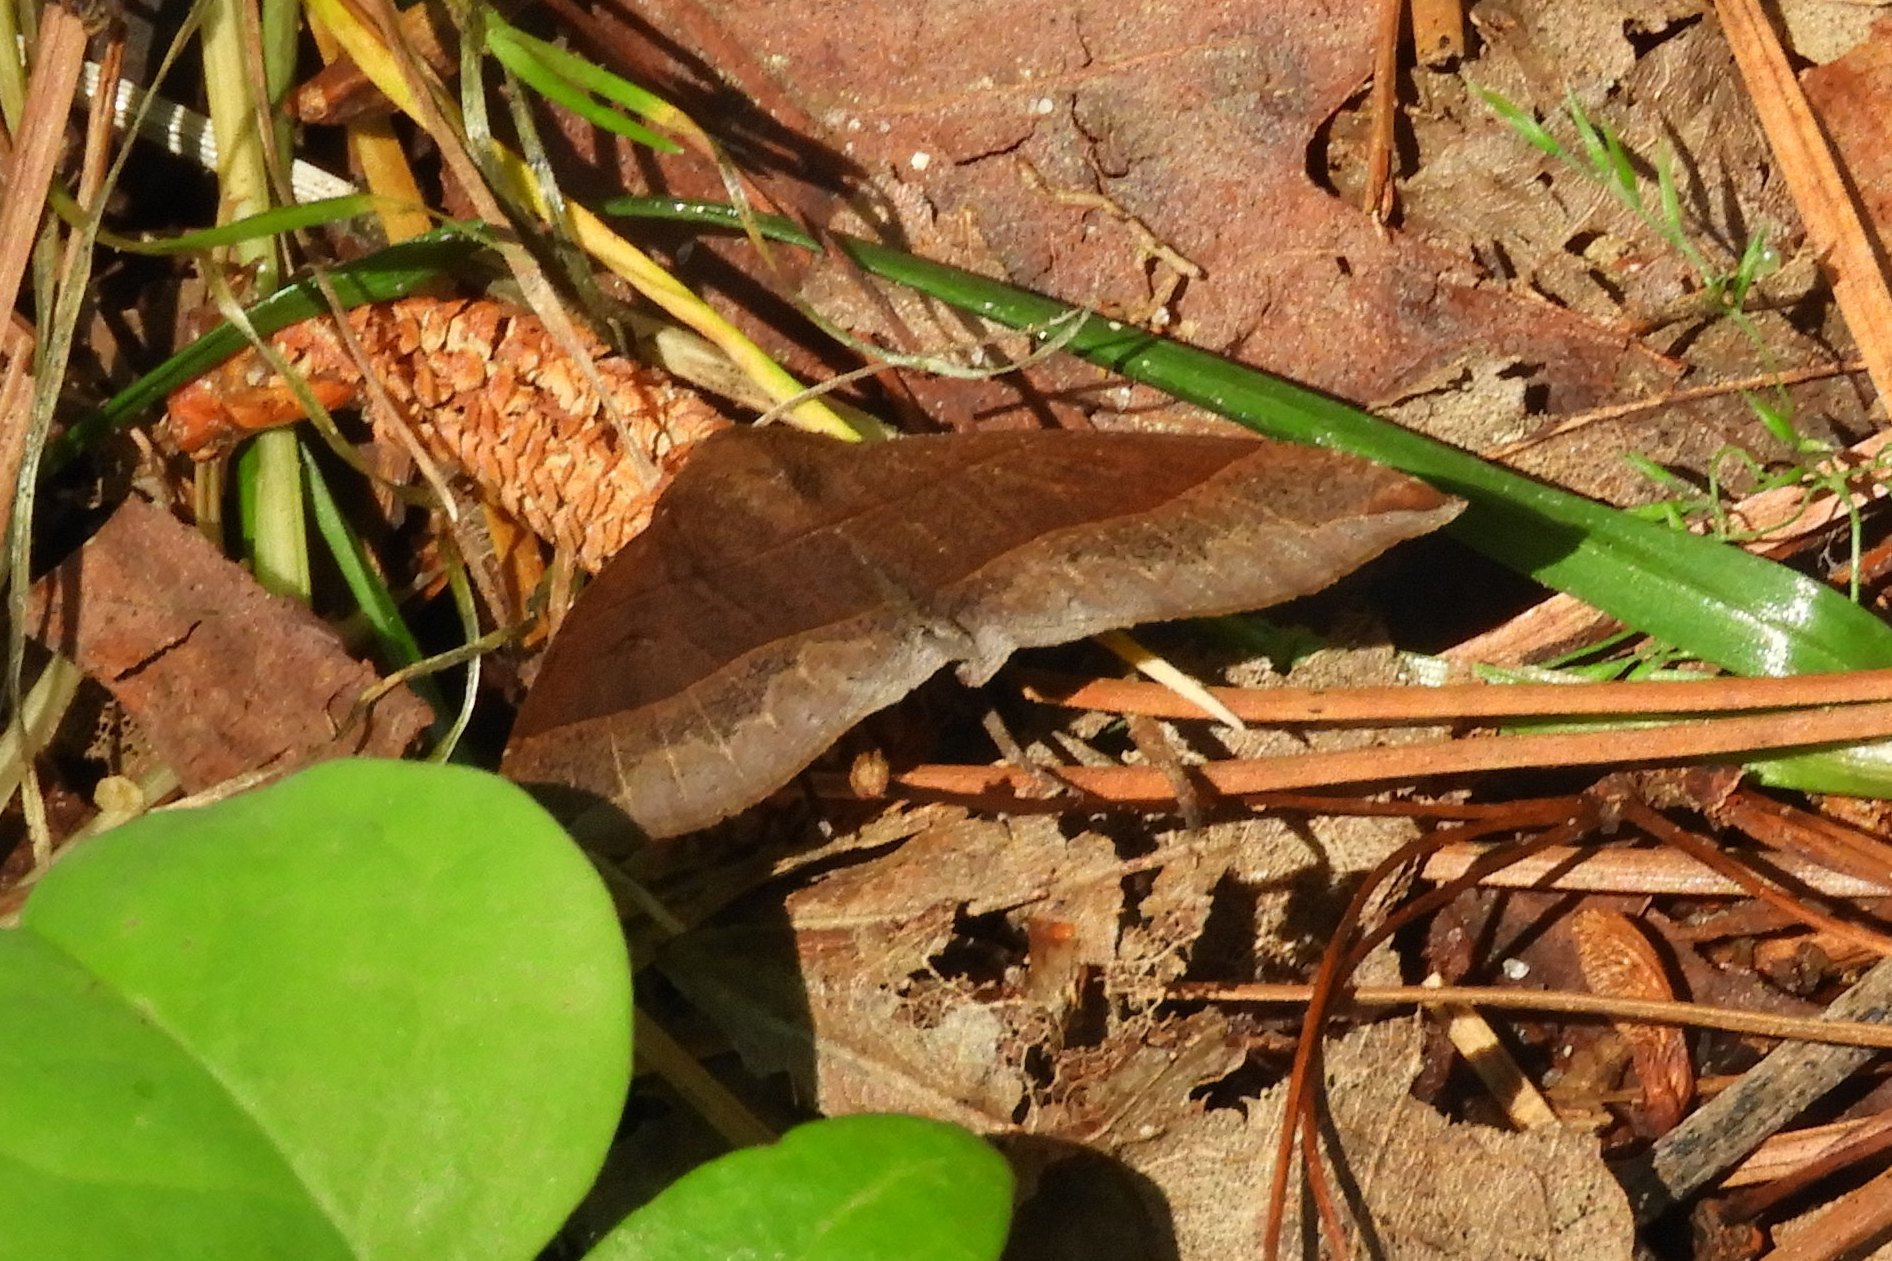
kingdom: Animalia
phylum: Arthropoda
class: Insecta
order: Lepidoptera
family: Erebidae
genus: Parallelia
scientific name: Parallelia bistriaris
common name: Maple looper moth
